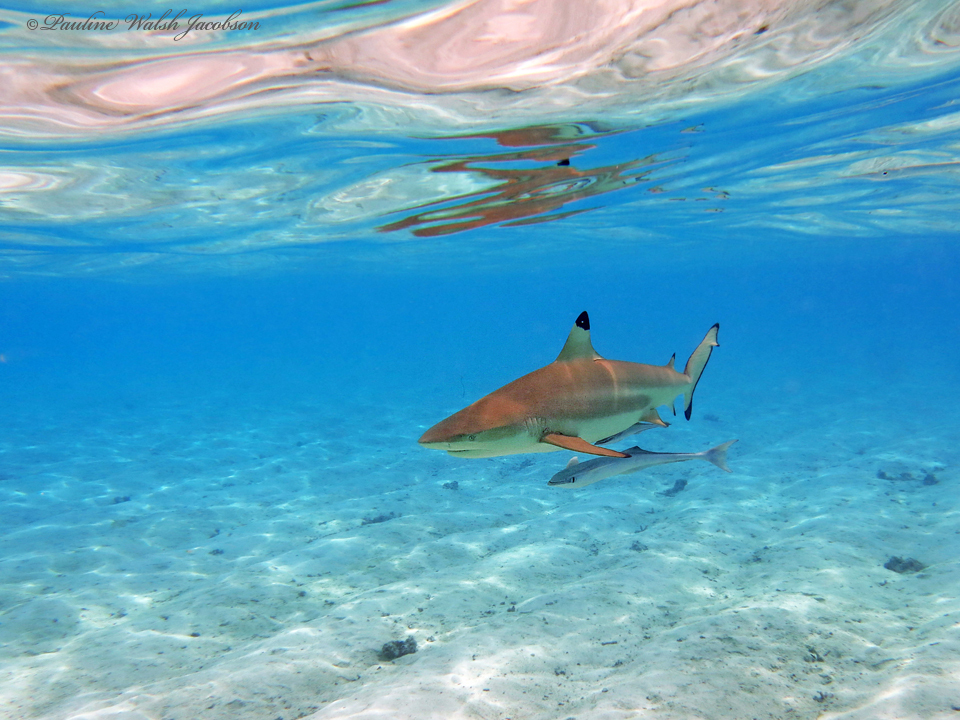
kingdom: Animalia
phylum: Chordata
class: Elasmobranchii
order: Carcharhiniformes
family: Carcharhinidae
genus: Carcharhinus
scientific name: Carcharhinus melanopterus
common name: Blacktip reef shark
